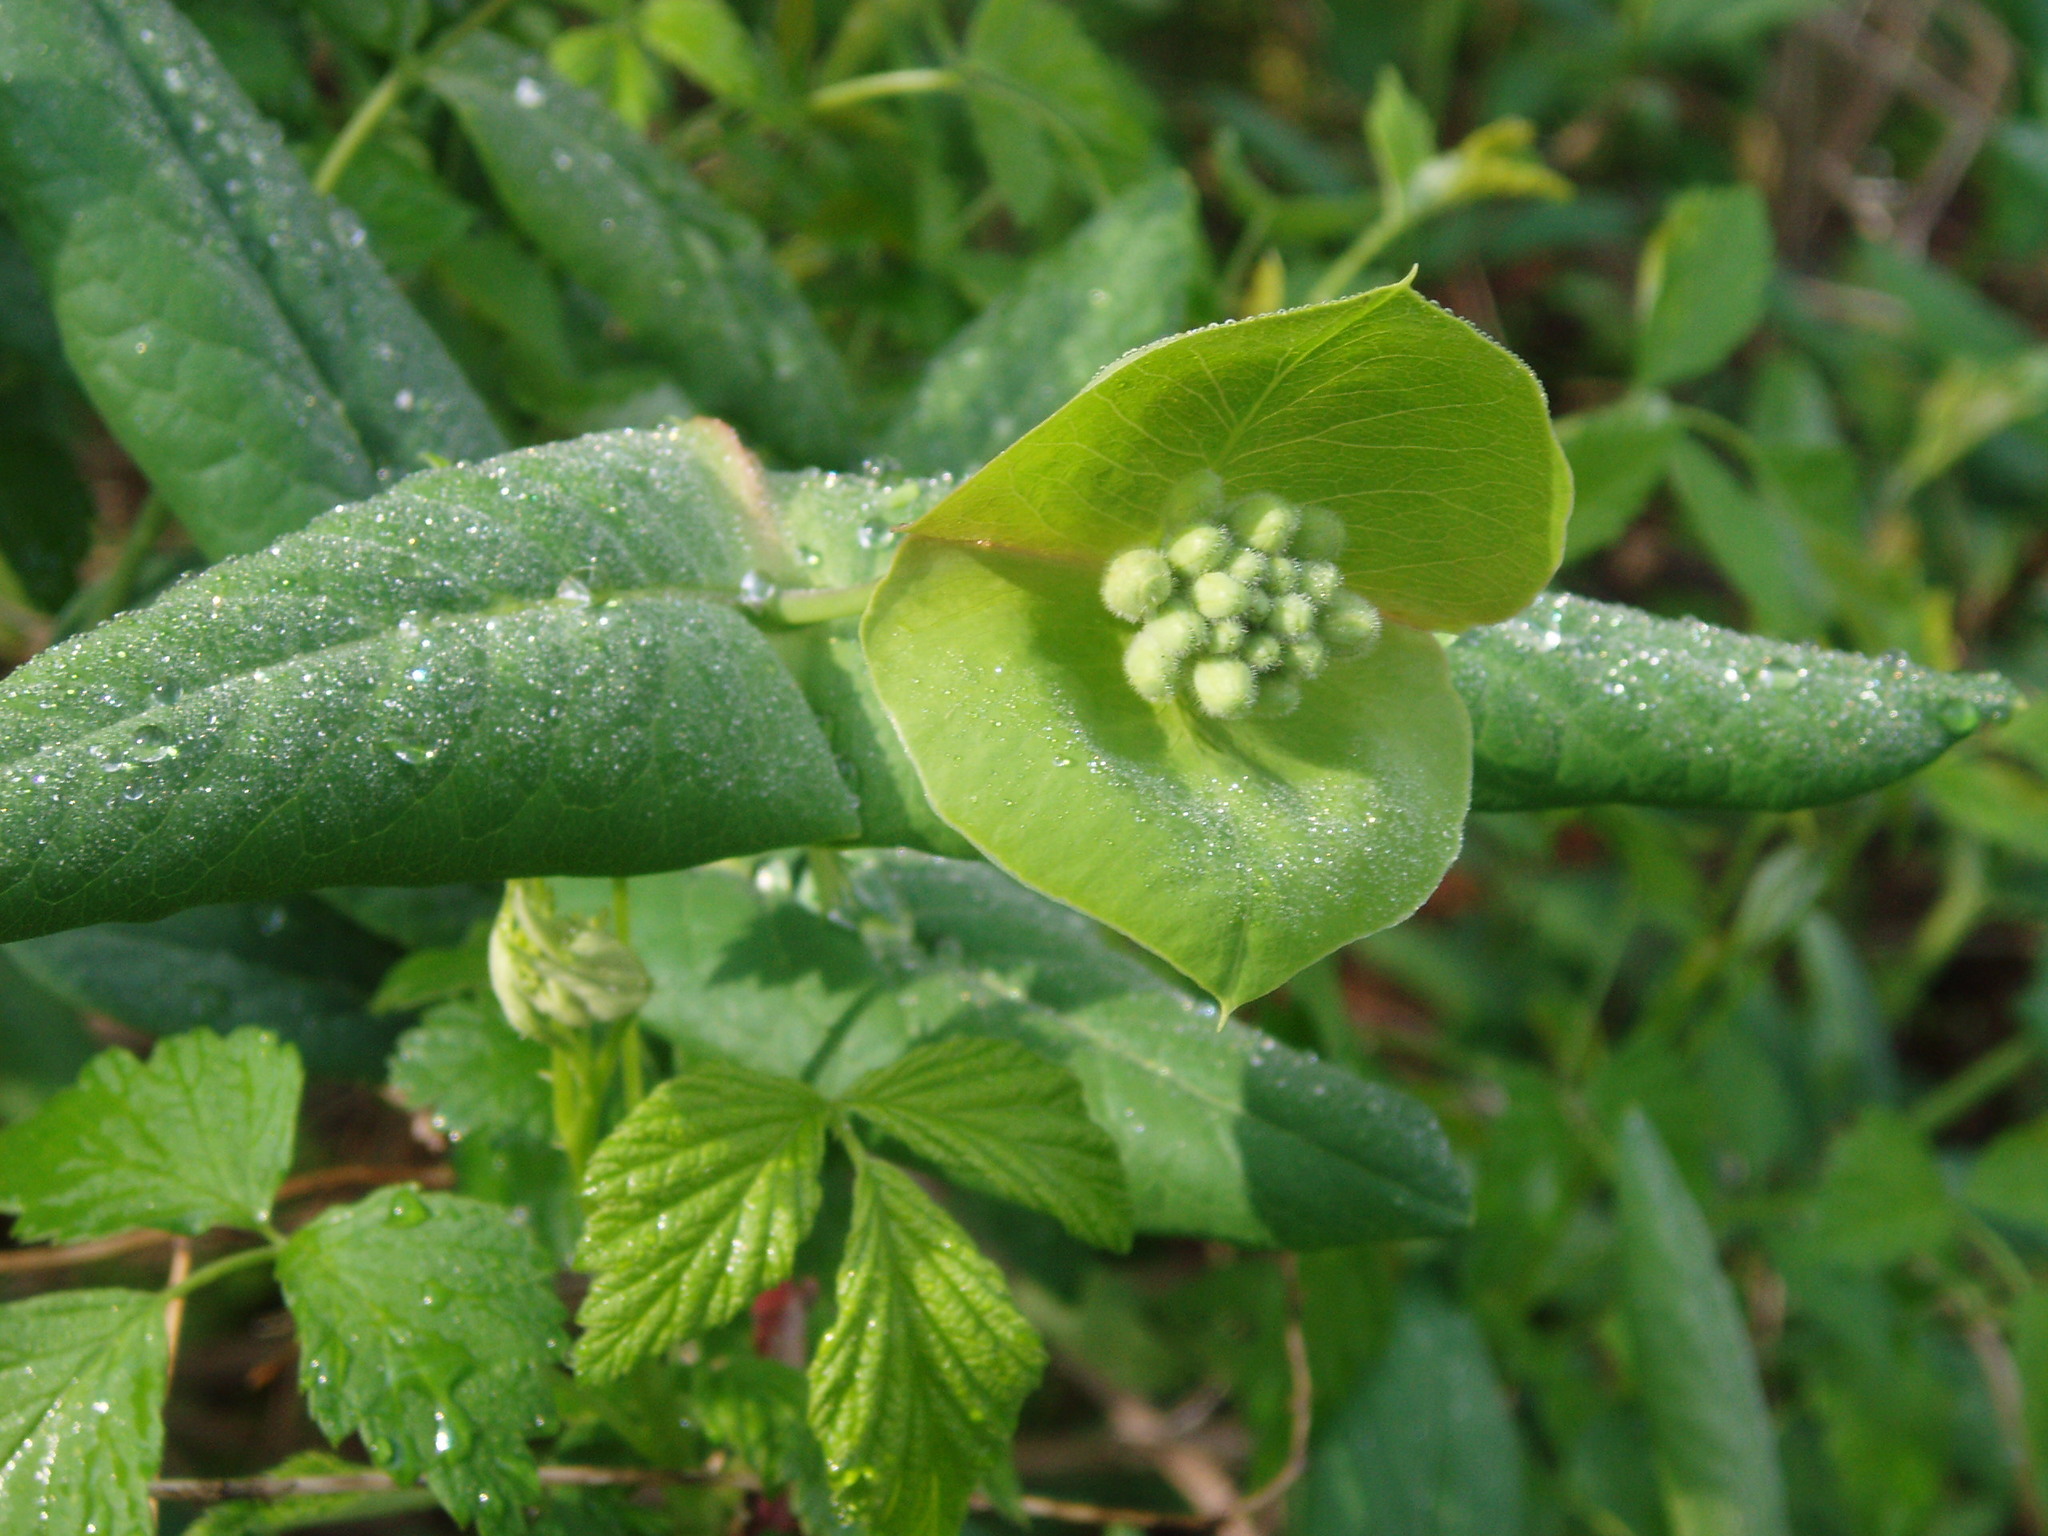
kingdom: Plantae
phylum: Tracheophyta
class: Magnoliopsida
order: Dipsacales
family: Caprifoliaceae
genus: Lonicera
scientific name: Lonicera dioica
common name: Limber honeysuckle
